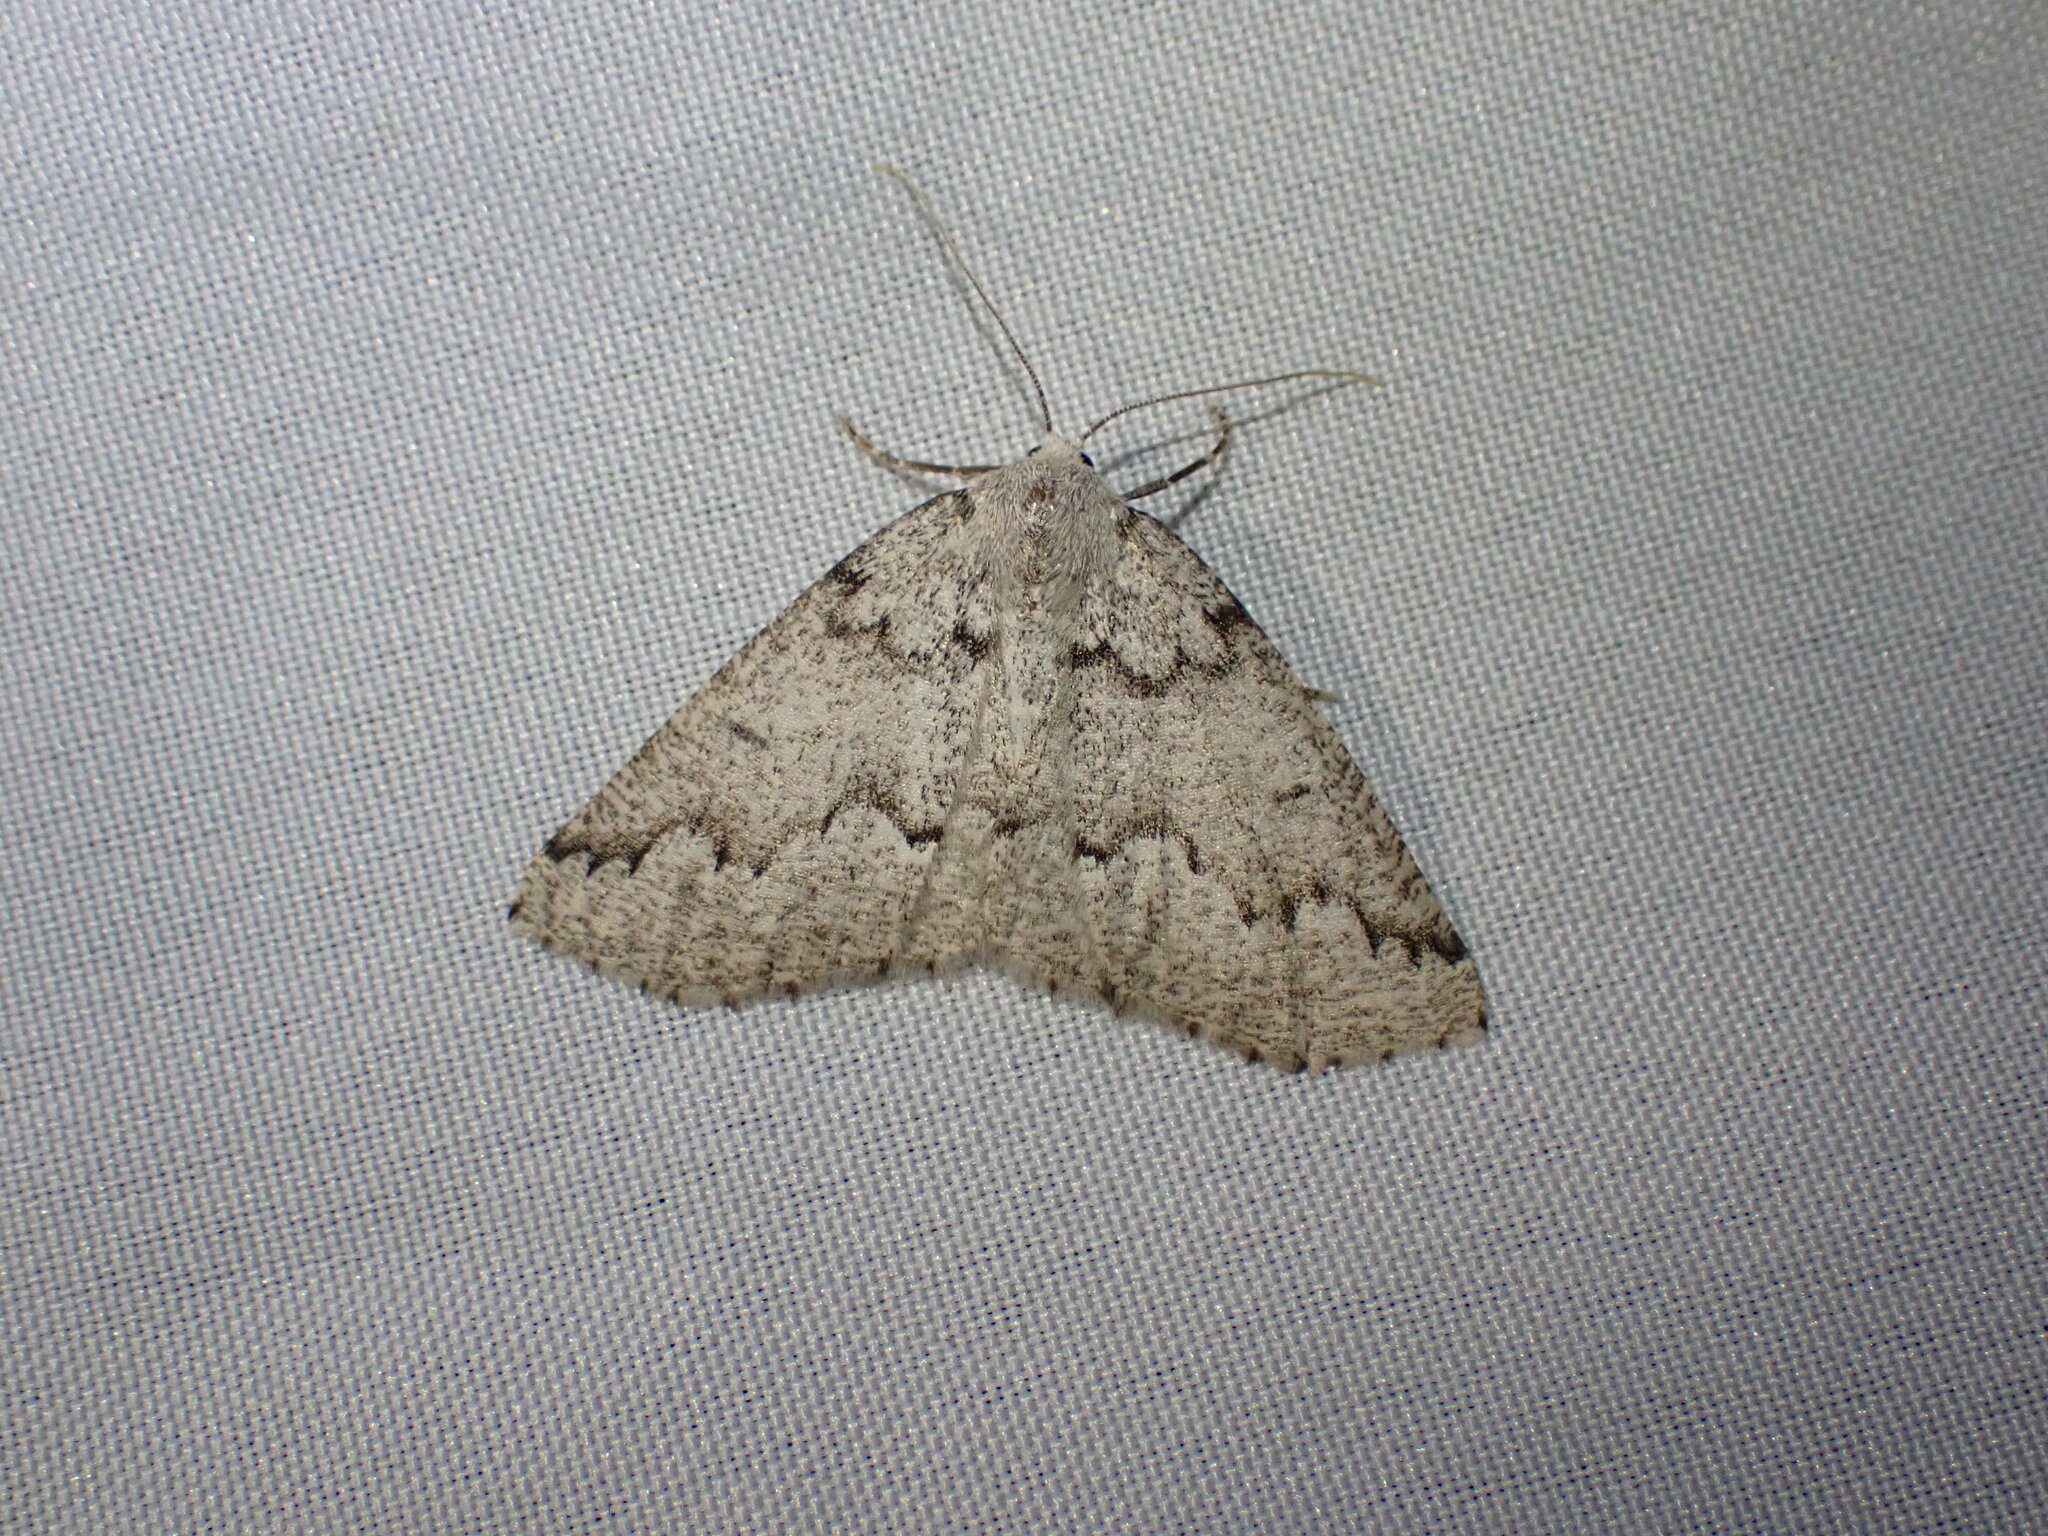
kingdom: Animalia
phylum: Arthropoda
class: Insecta
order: Lepidoptera
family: Geometridae
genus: Sabulodes
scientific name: Sabulodes
